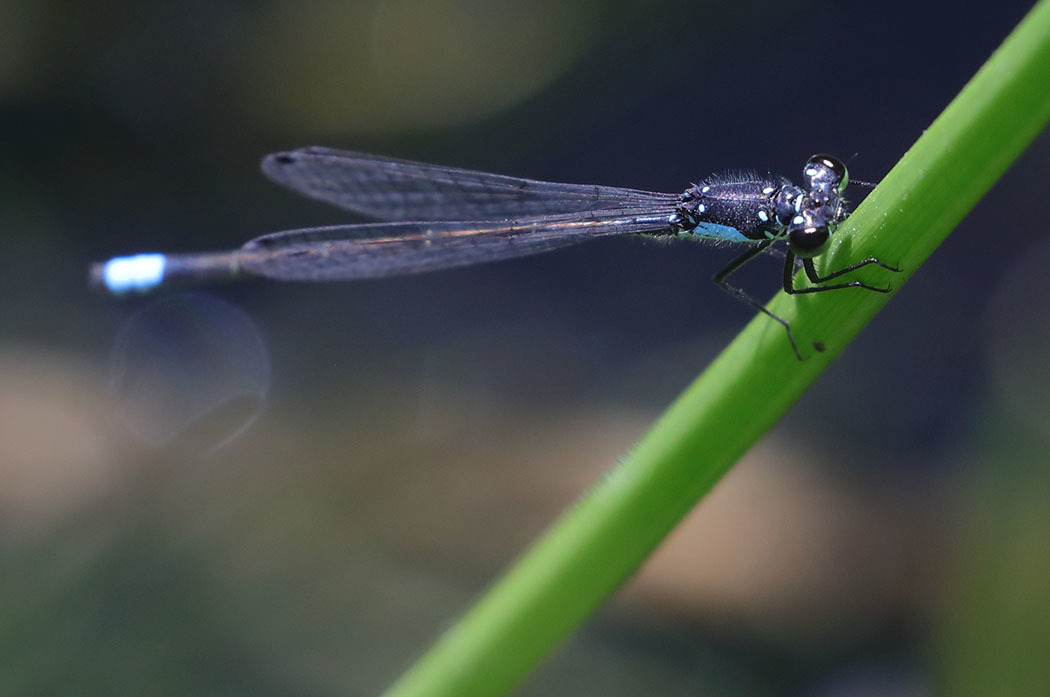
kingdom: Animalia
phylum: Arthropoda
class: Insecta
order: Odonata
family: Coenagrionidae
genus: Ischnura
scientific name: Ischnura cervula
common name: Pacific forktail
